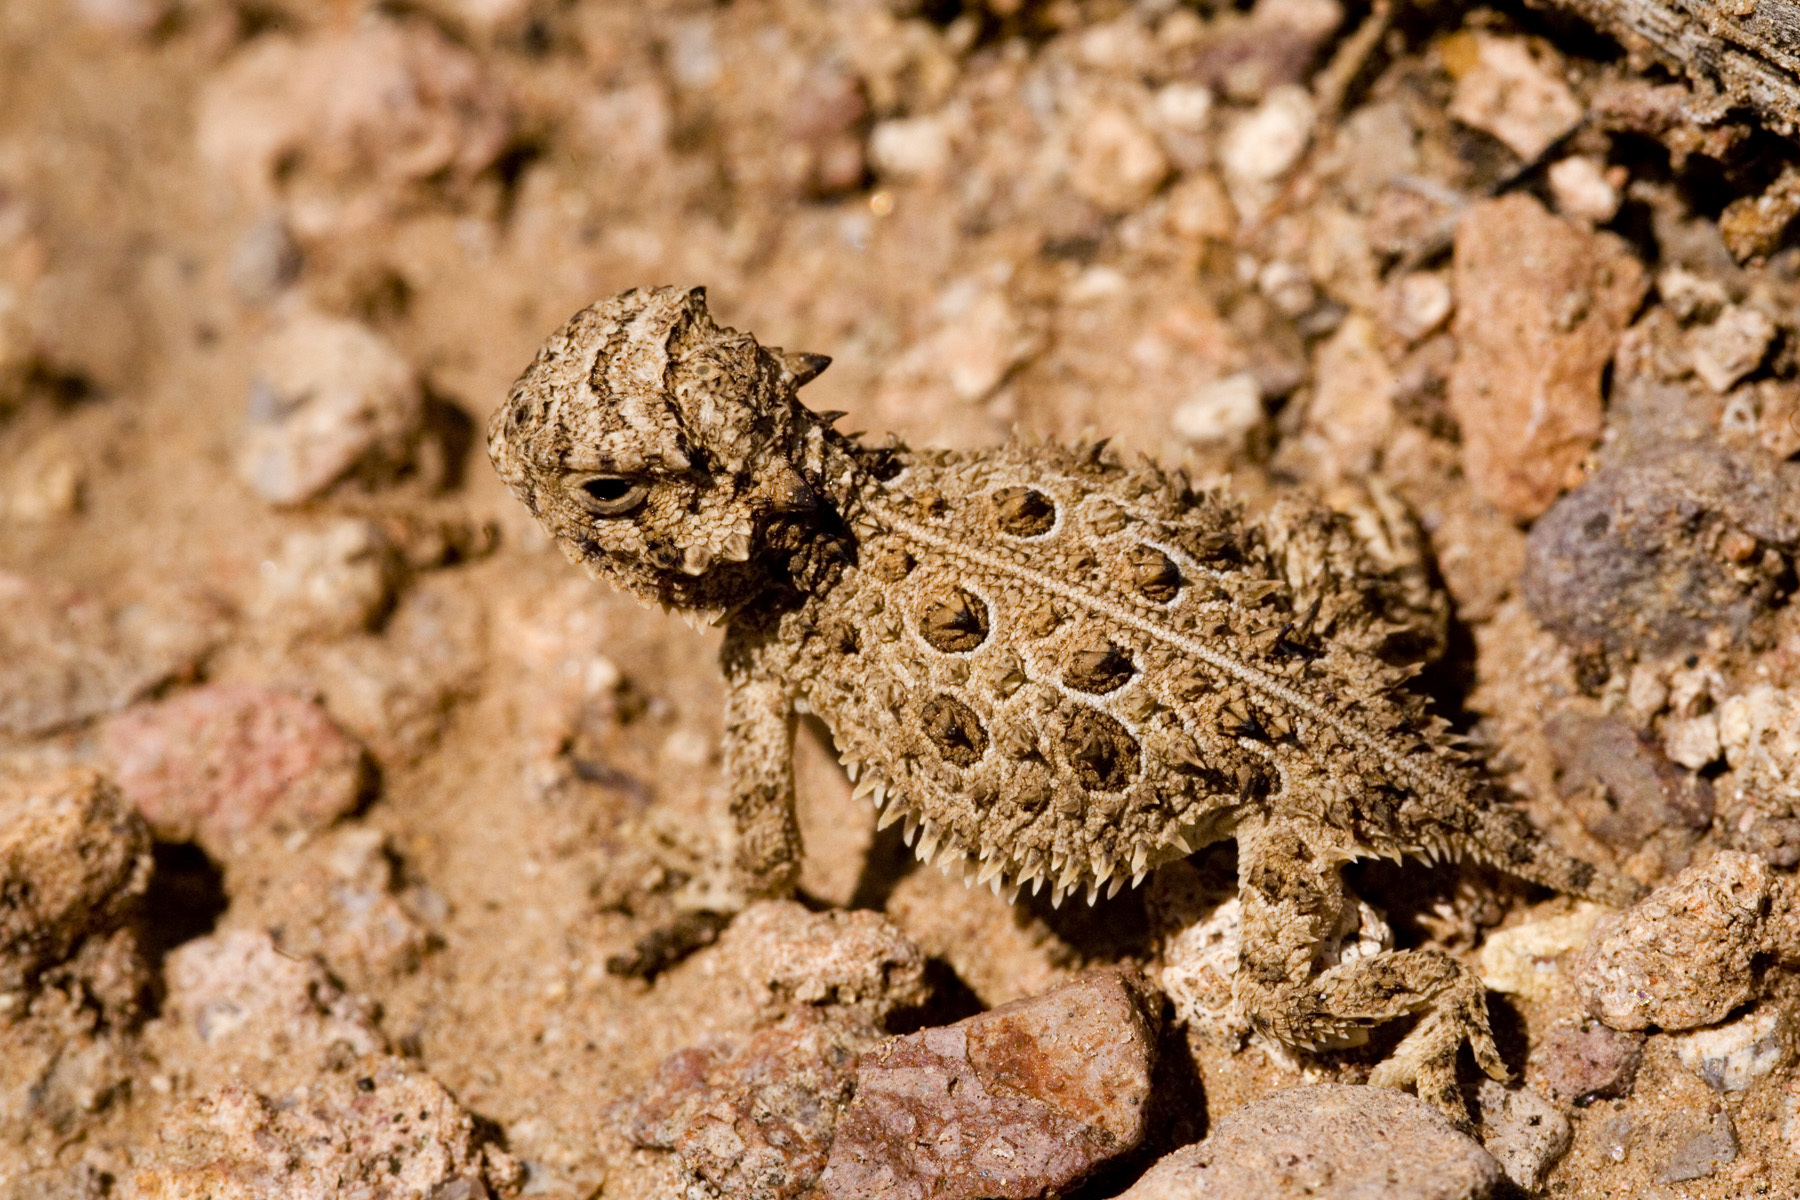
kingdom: Animalia
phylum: Chordata
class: Squamata
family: Phrynosomatidae
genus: Phrynosoma
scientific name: Phrynosoma cornutum
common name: Texas horned lizard
